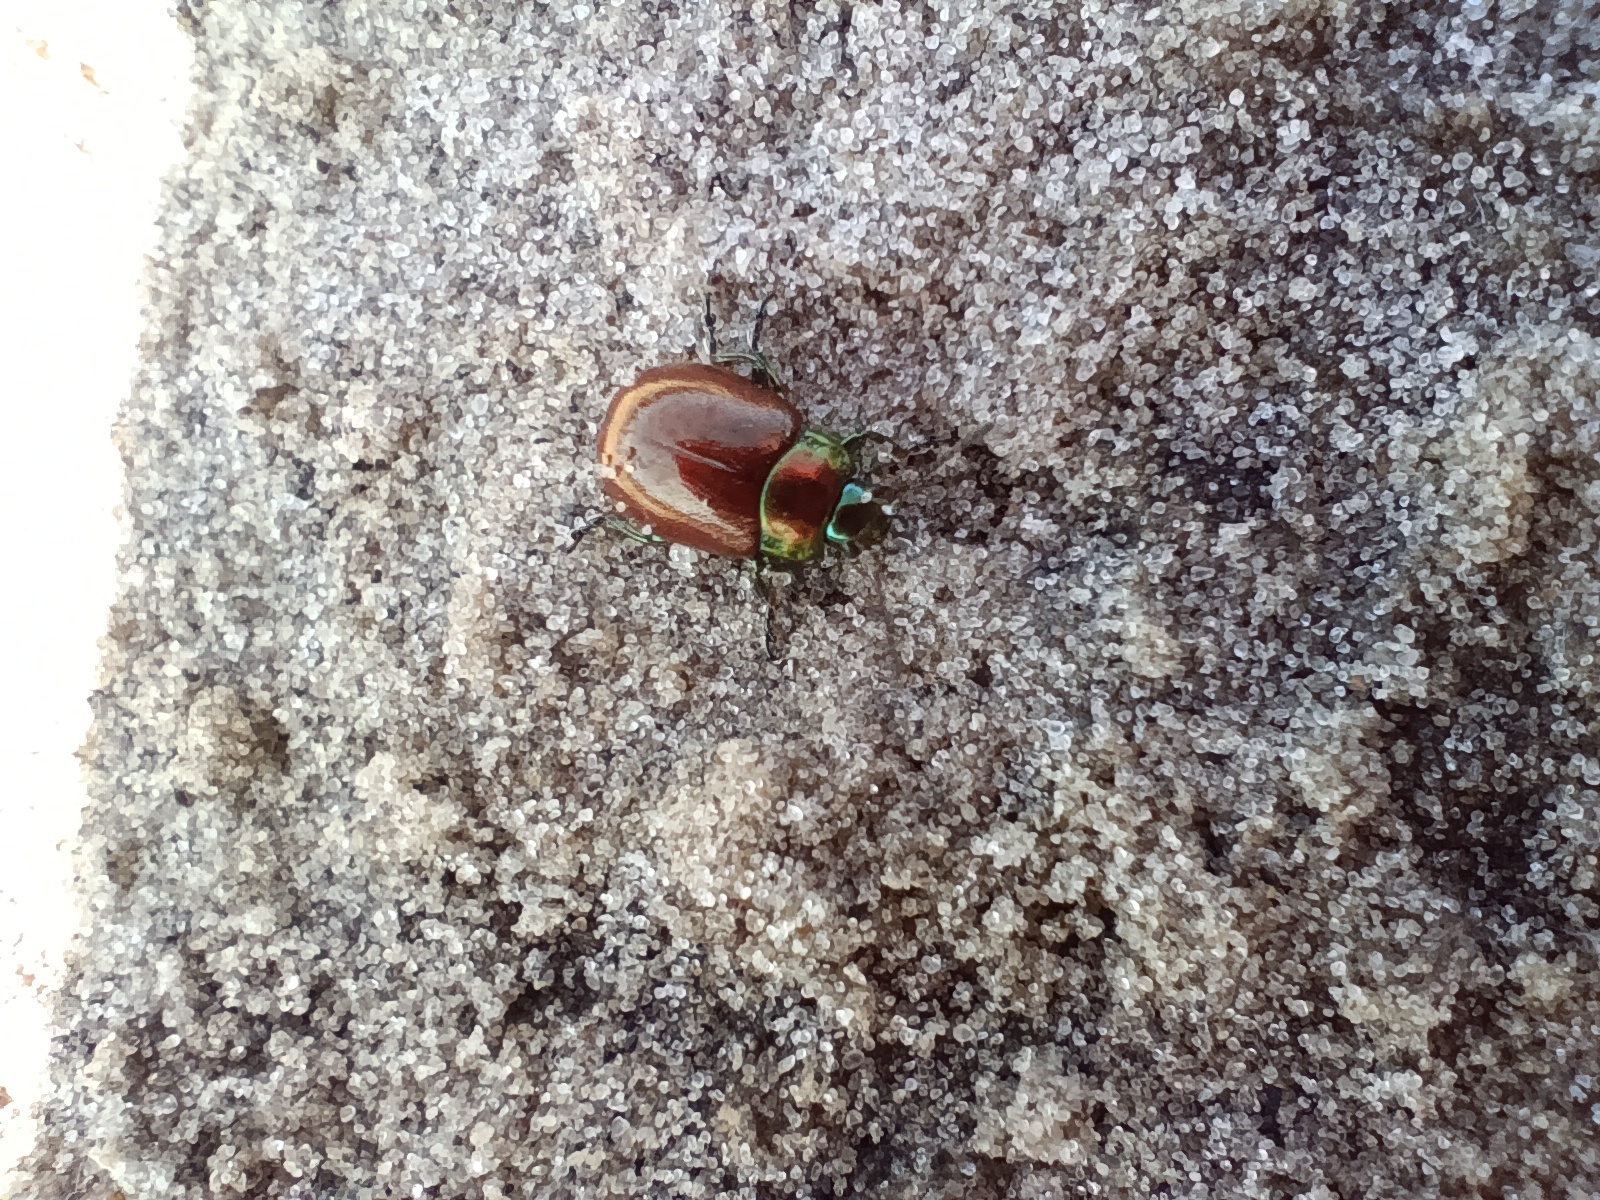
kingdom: Animalia
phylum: Arthropoda
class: Insecta
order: Coleoptera
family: Chrysomelidae
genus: Chrysomela
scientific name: Chrysomela polita
